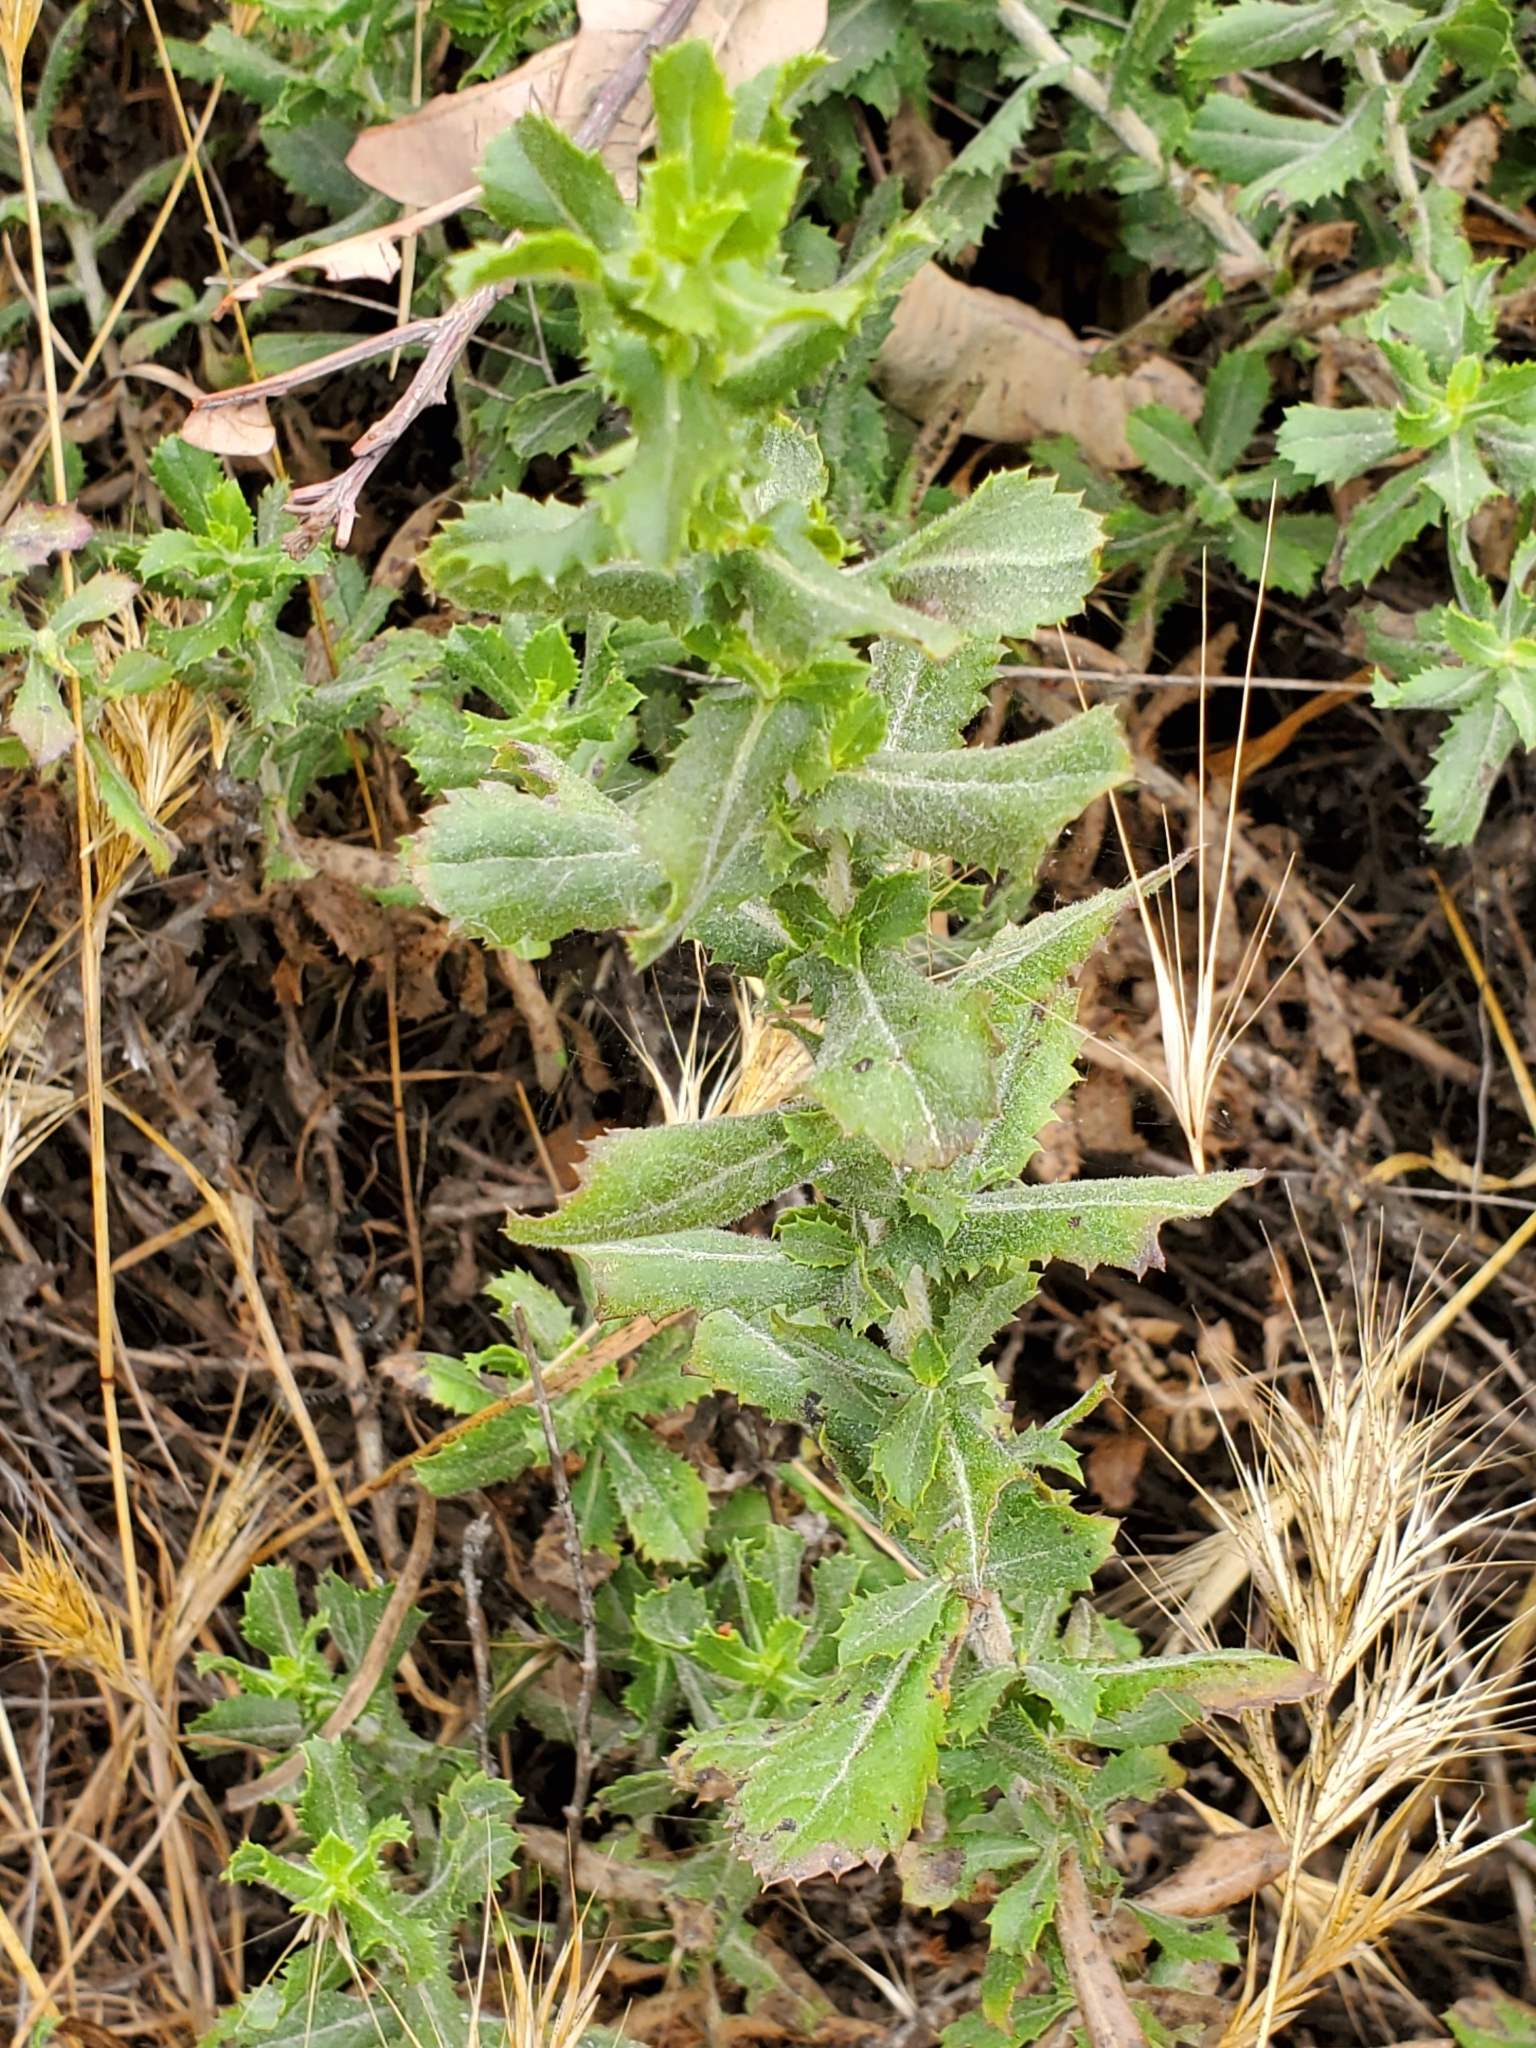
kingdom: Plantae
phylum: Tracheophyta
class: Magnoliopsida
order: Asterales
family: Asteraceae
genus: Hazardia
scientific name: Hazardia squarrosa
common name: Saw-tooth goldenbush
